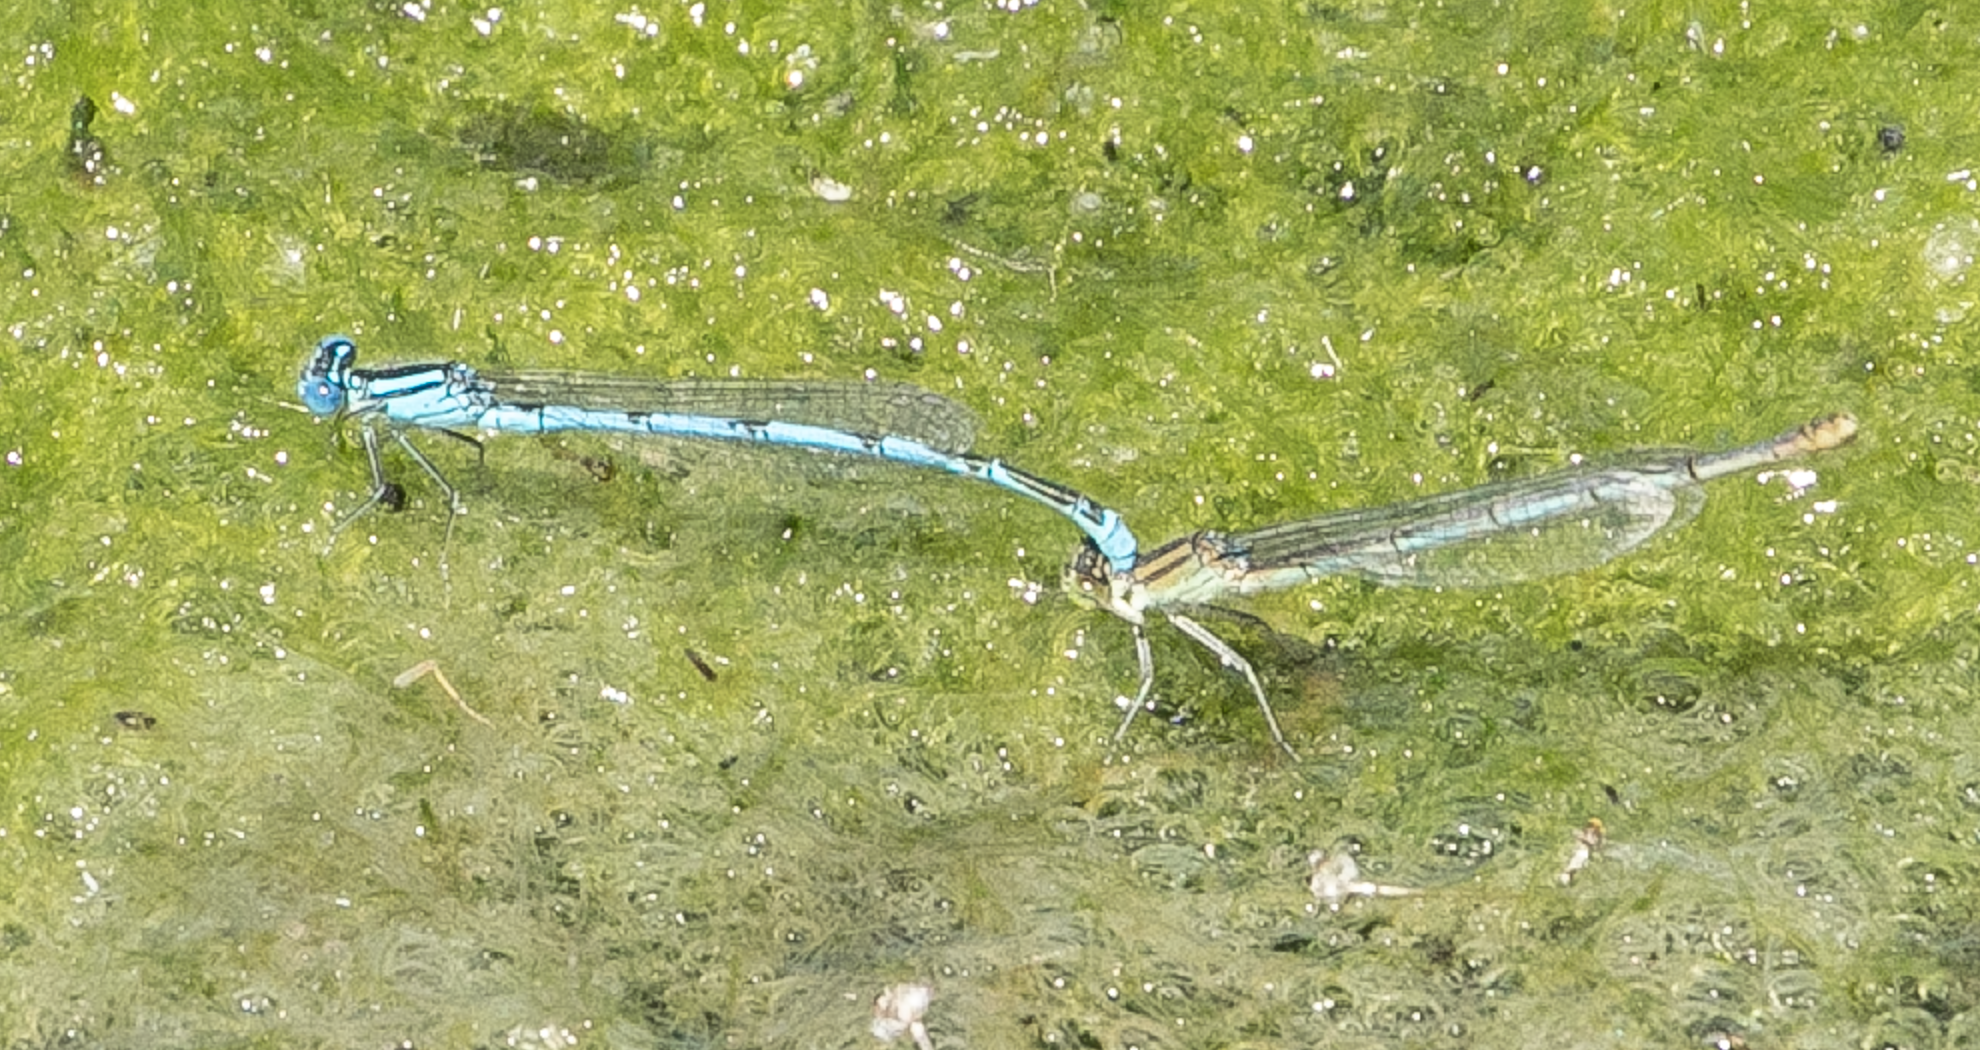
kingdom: Animalia
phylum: Arthropoda
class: Insecta
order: Odonata
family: Coenagrionidae
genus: Erythromma
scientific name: Erythromma lindenii
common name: Blue-eye
